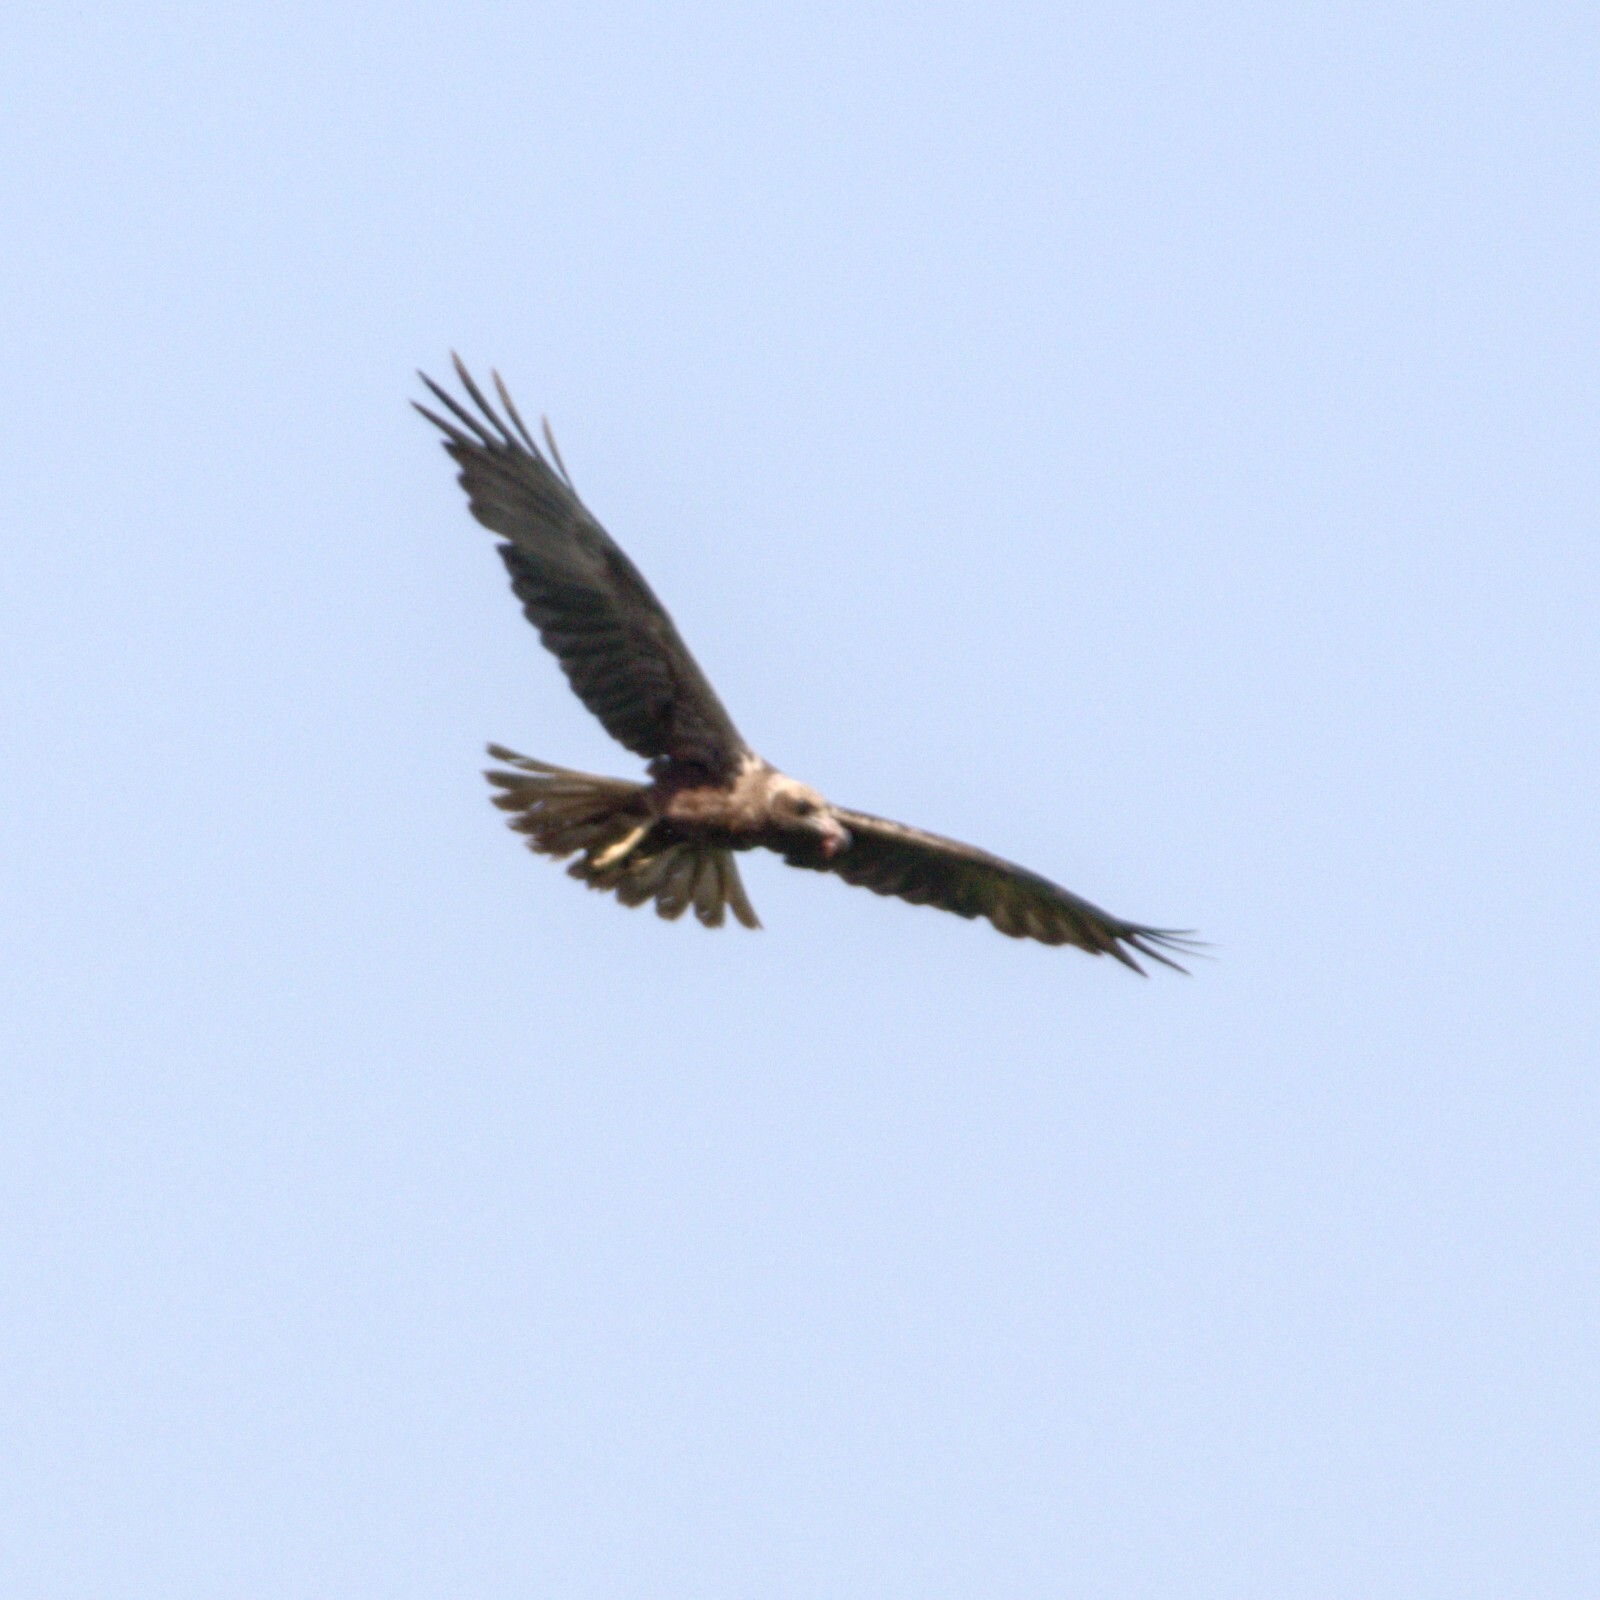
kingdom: Animalia
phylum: Chordata
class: Aves
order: Accipitriformes
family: Accipitridae
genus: Circus
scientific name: Circus aeruginosus
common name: Western marsh harrier
